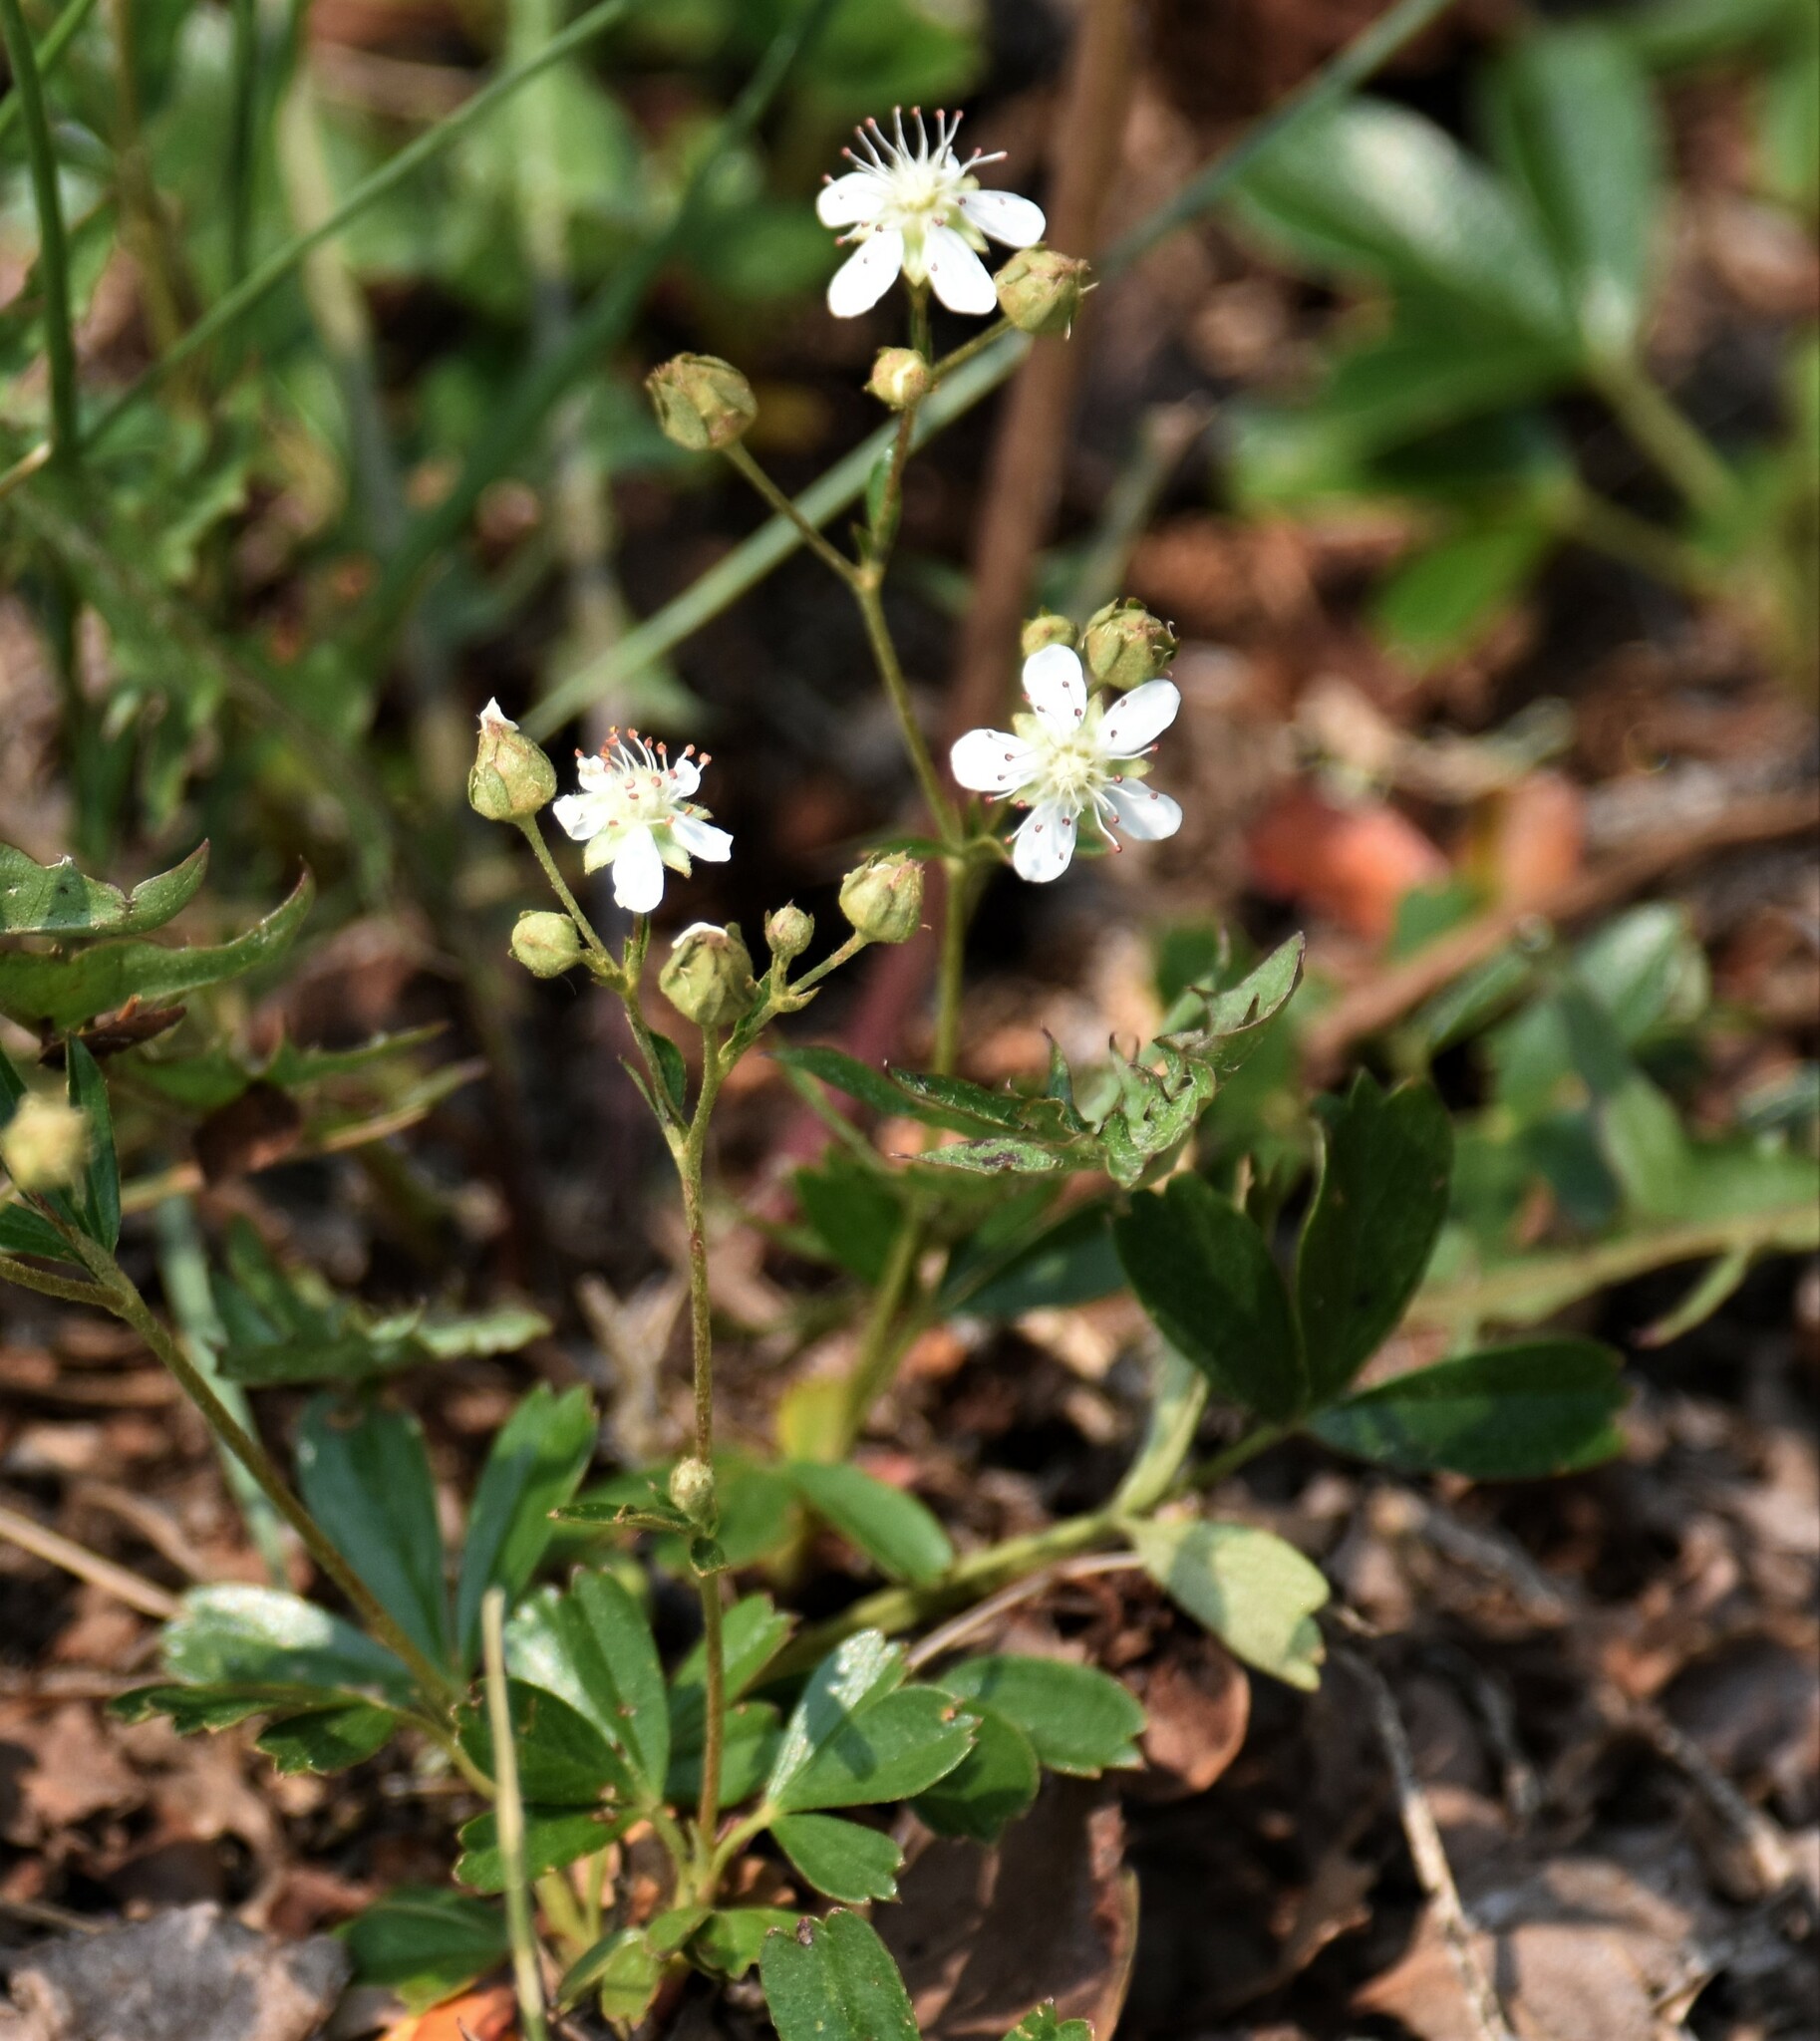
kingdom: Plantae
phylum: Tracheophyta
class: Magnoliopsida
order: Rosales
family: Rosaceae
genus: Sibbaldia
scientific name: Sibbaldia tridentata
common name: Three-toothed cinquefoil
